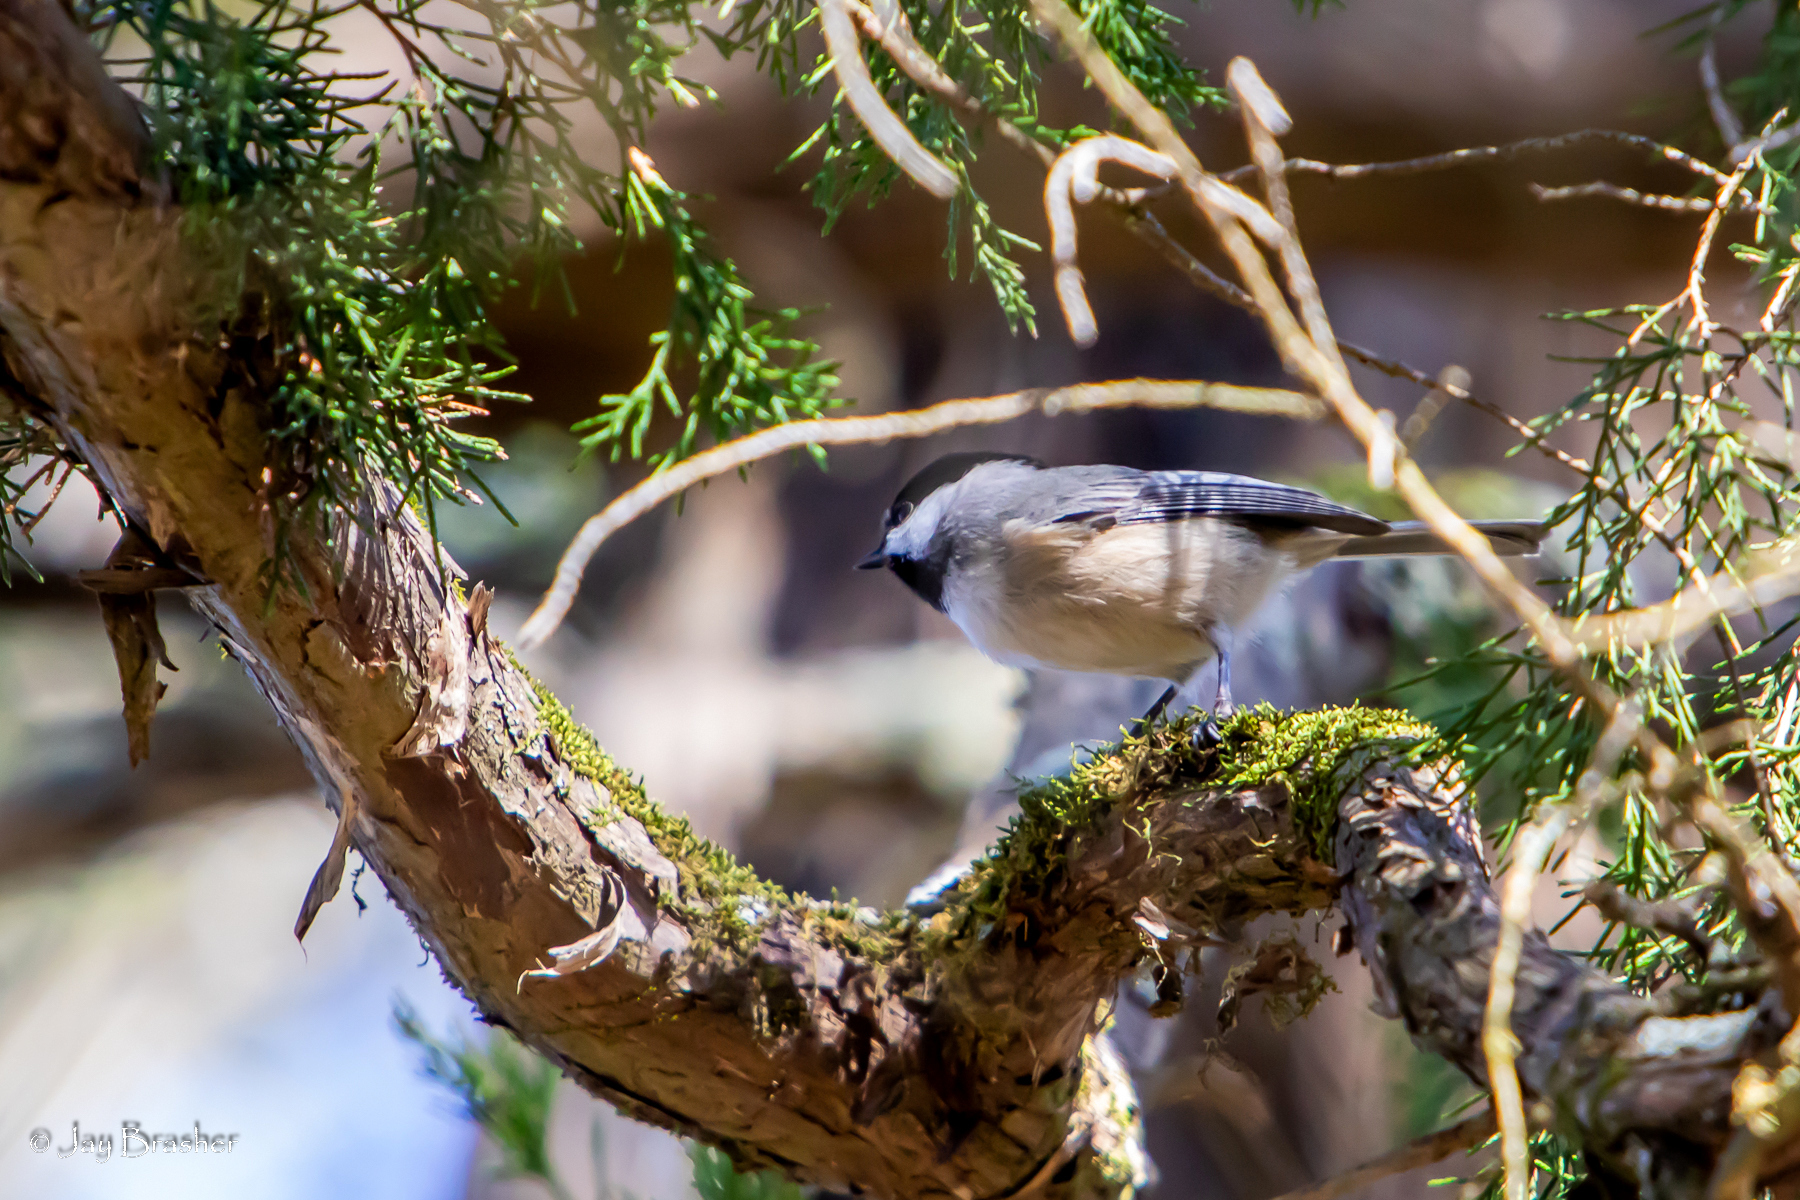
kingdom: Animalia
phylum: Chordata
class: Aves
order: Passeriformes
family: Paridae
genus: Poecile
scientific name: Poecile carolinensis
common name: Carolina chickadee
